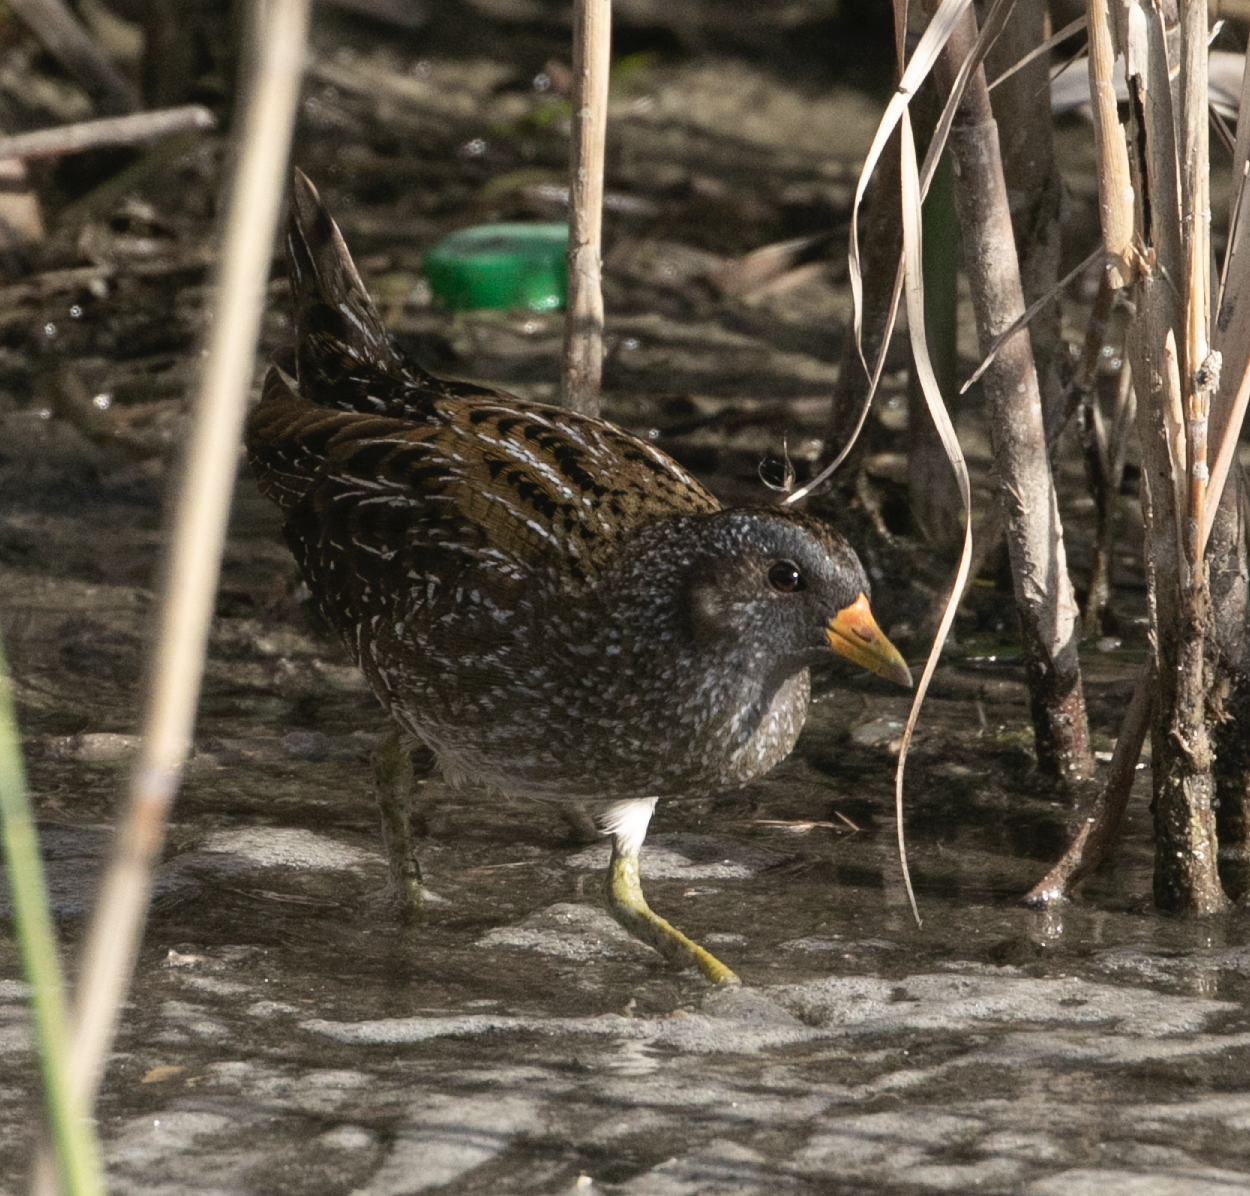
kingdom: Animalia
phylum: Chordata
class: Aves
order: Gruiformes
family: Rallidae
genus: Porzana
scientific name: Porzana porzana
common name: Spotted crake
